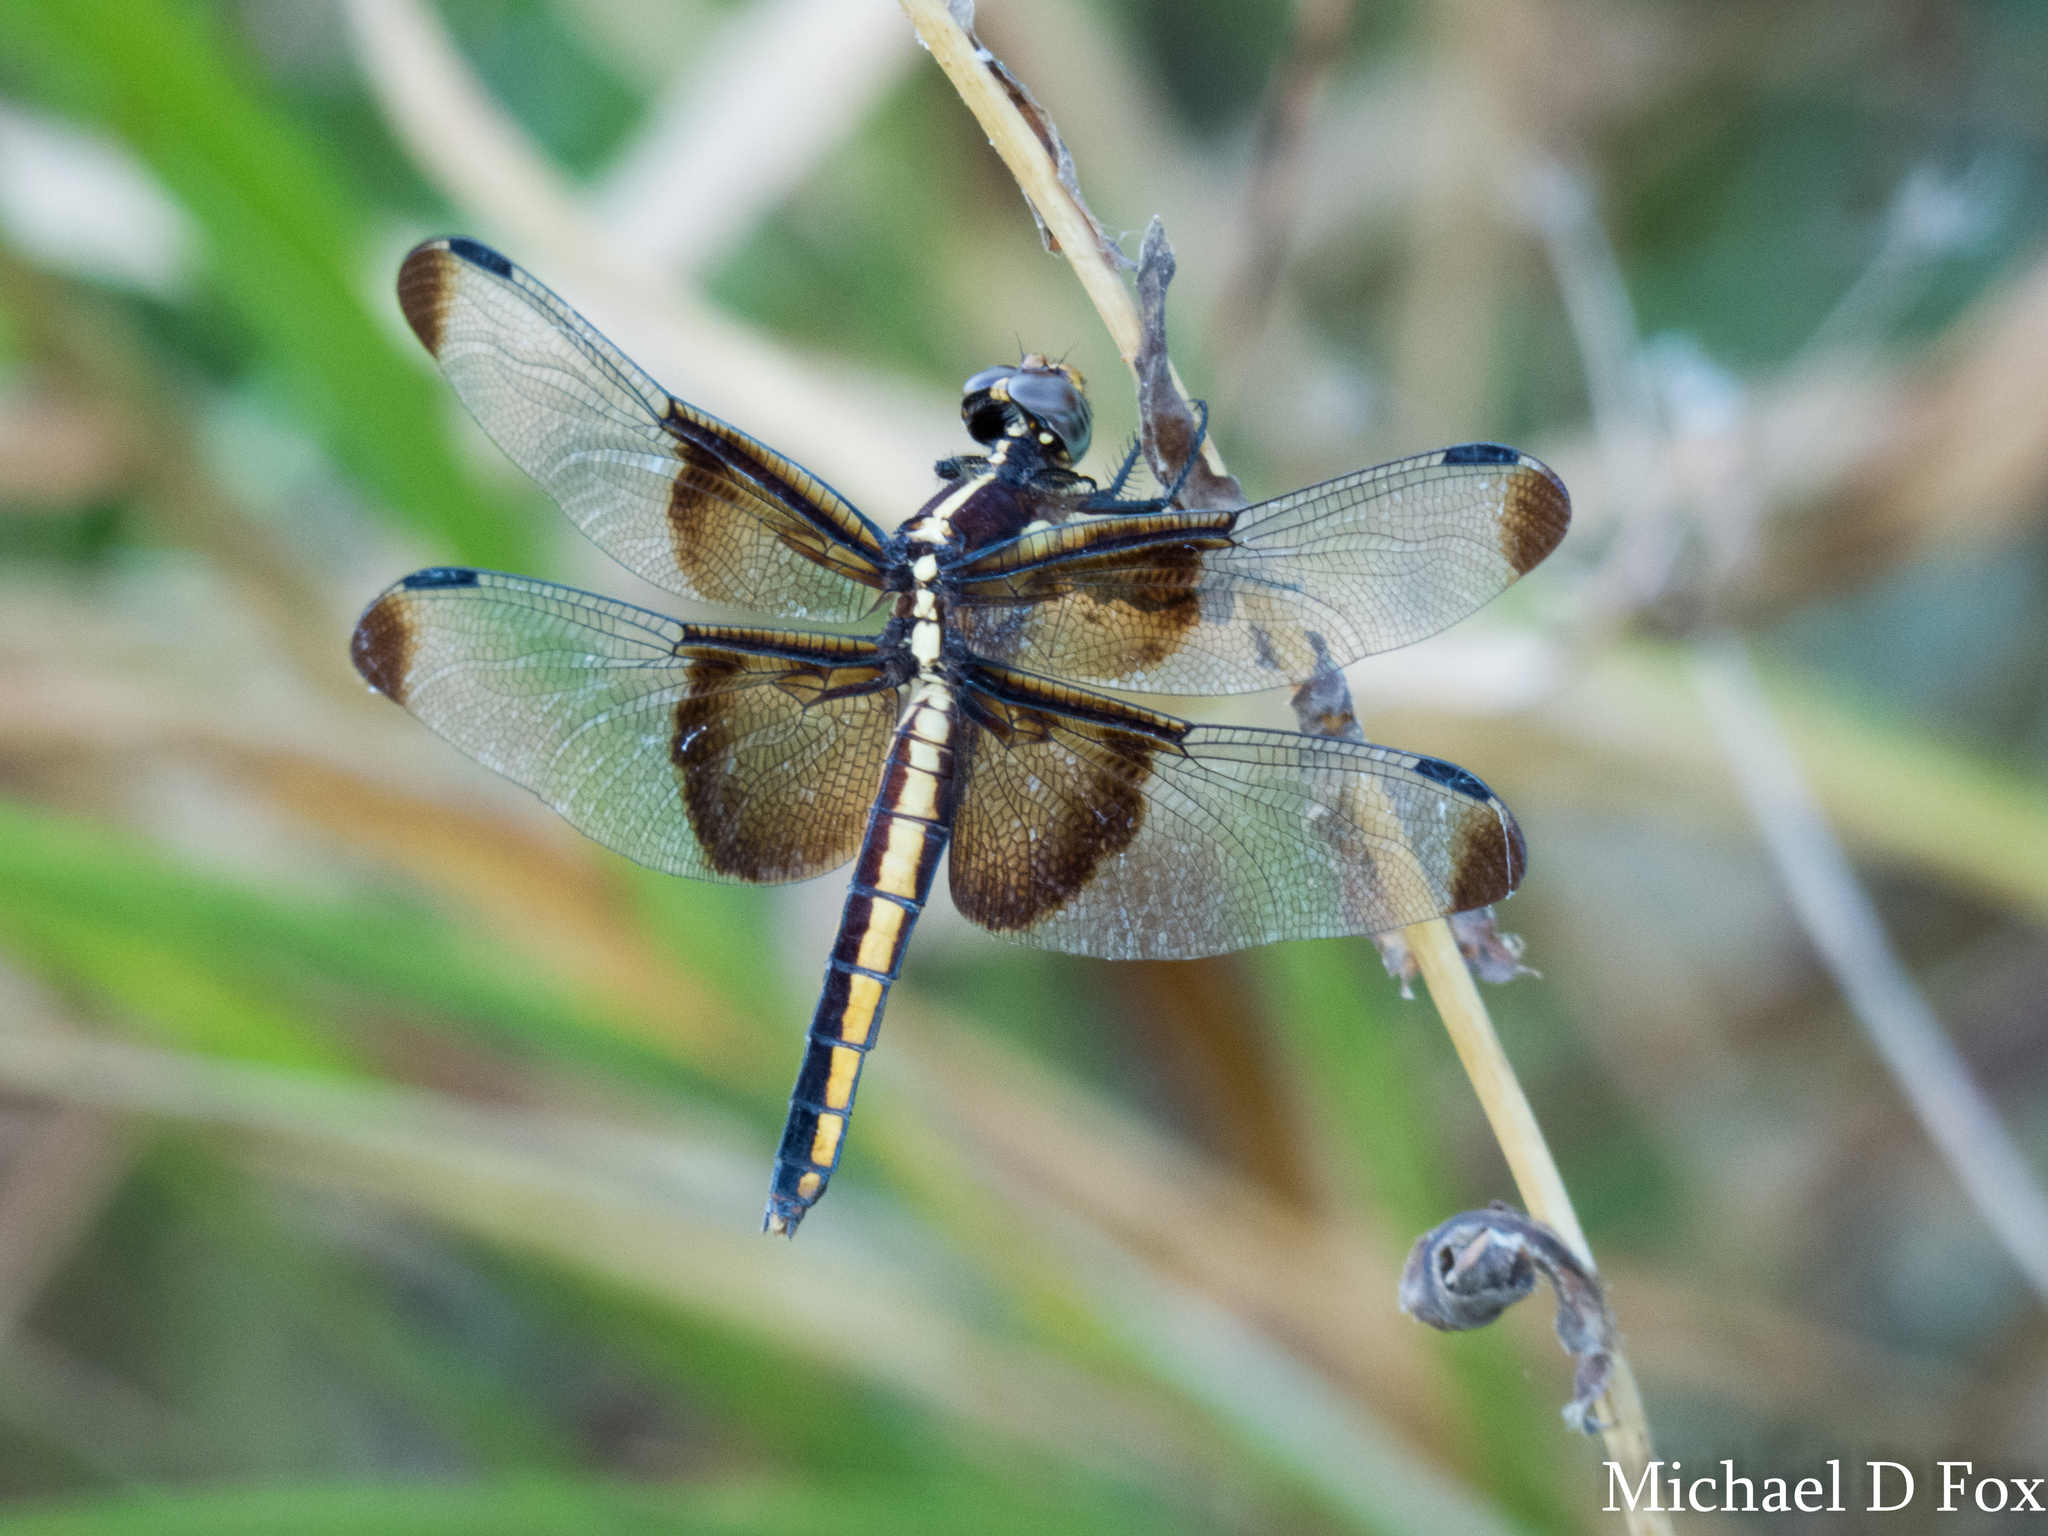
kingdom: Animalia
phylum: Arthropoda
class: Insecta
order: Odonata
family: Libellulidae
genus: Libellula
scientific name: Libellula luctuosa
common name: Widow skimmer
